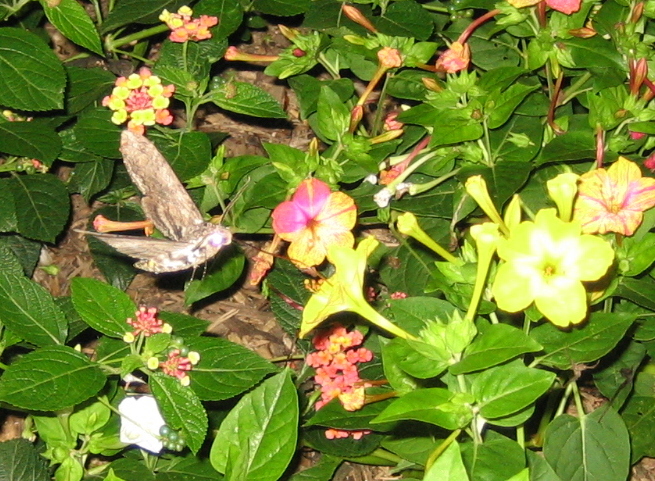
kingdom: Animalia
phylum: Arthropoda
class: Insecta
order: Lepidoptera
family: Sphingidae
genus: Manduca
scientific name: Manduca sexta
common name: Carolina sphinx
